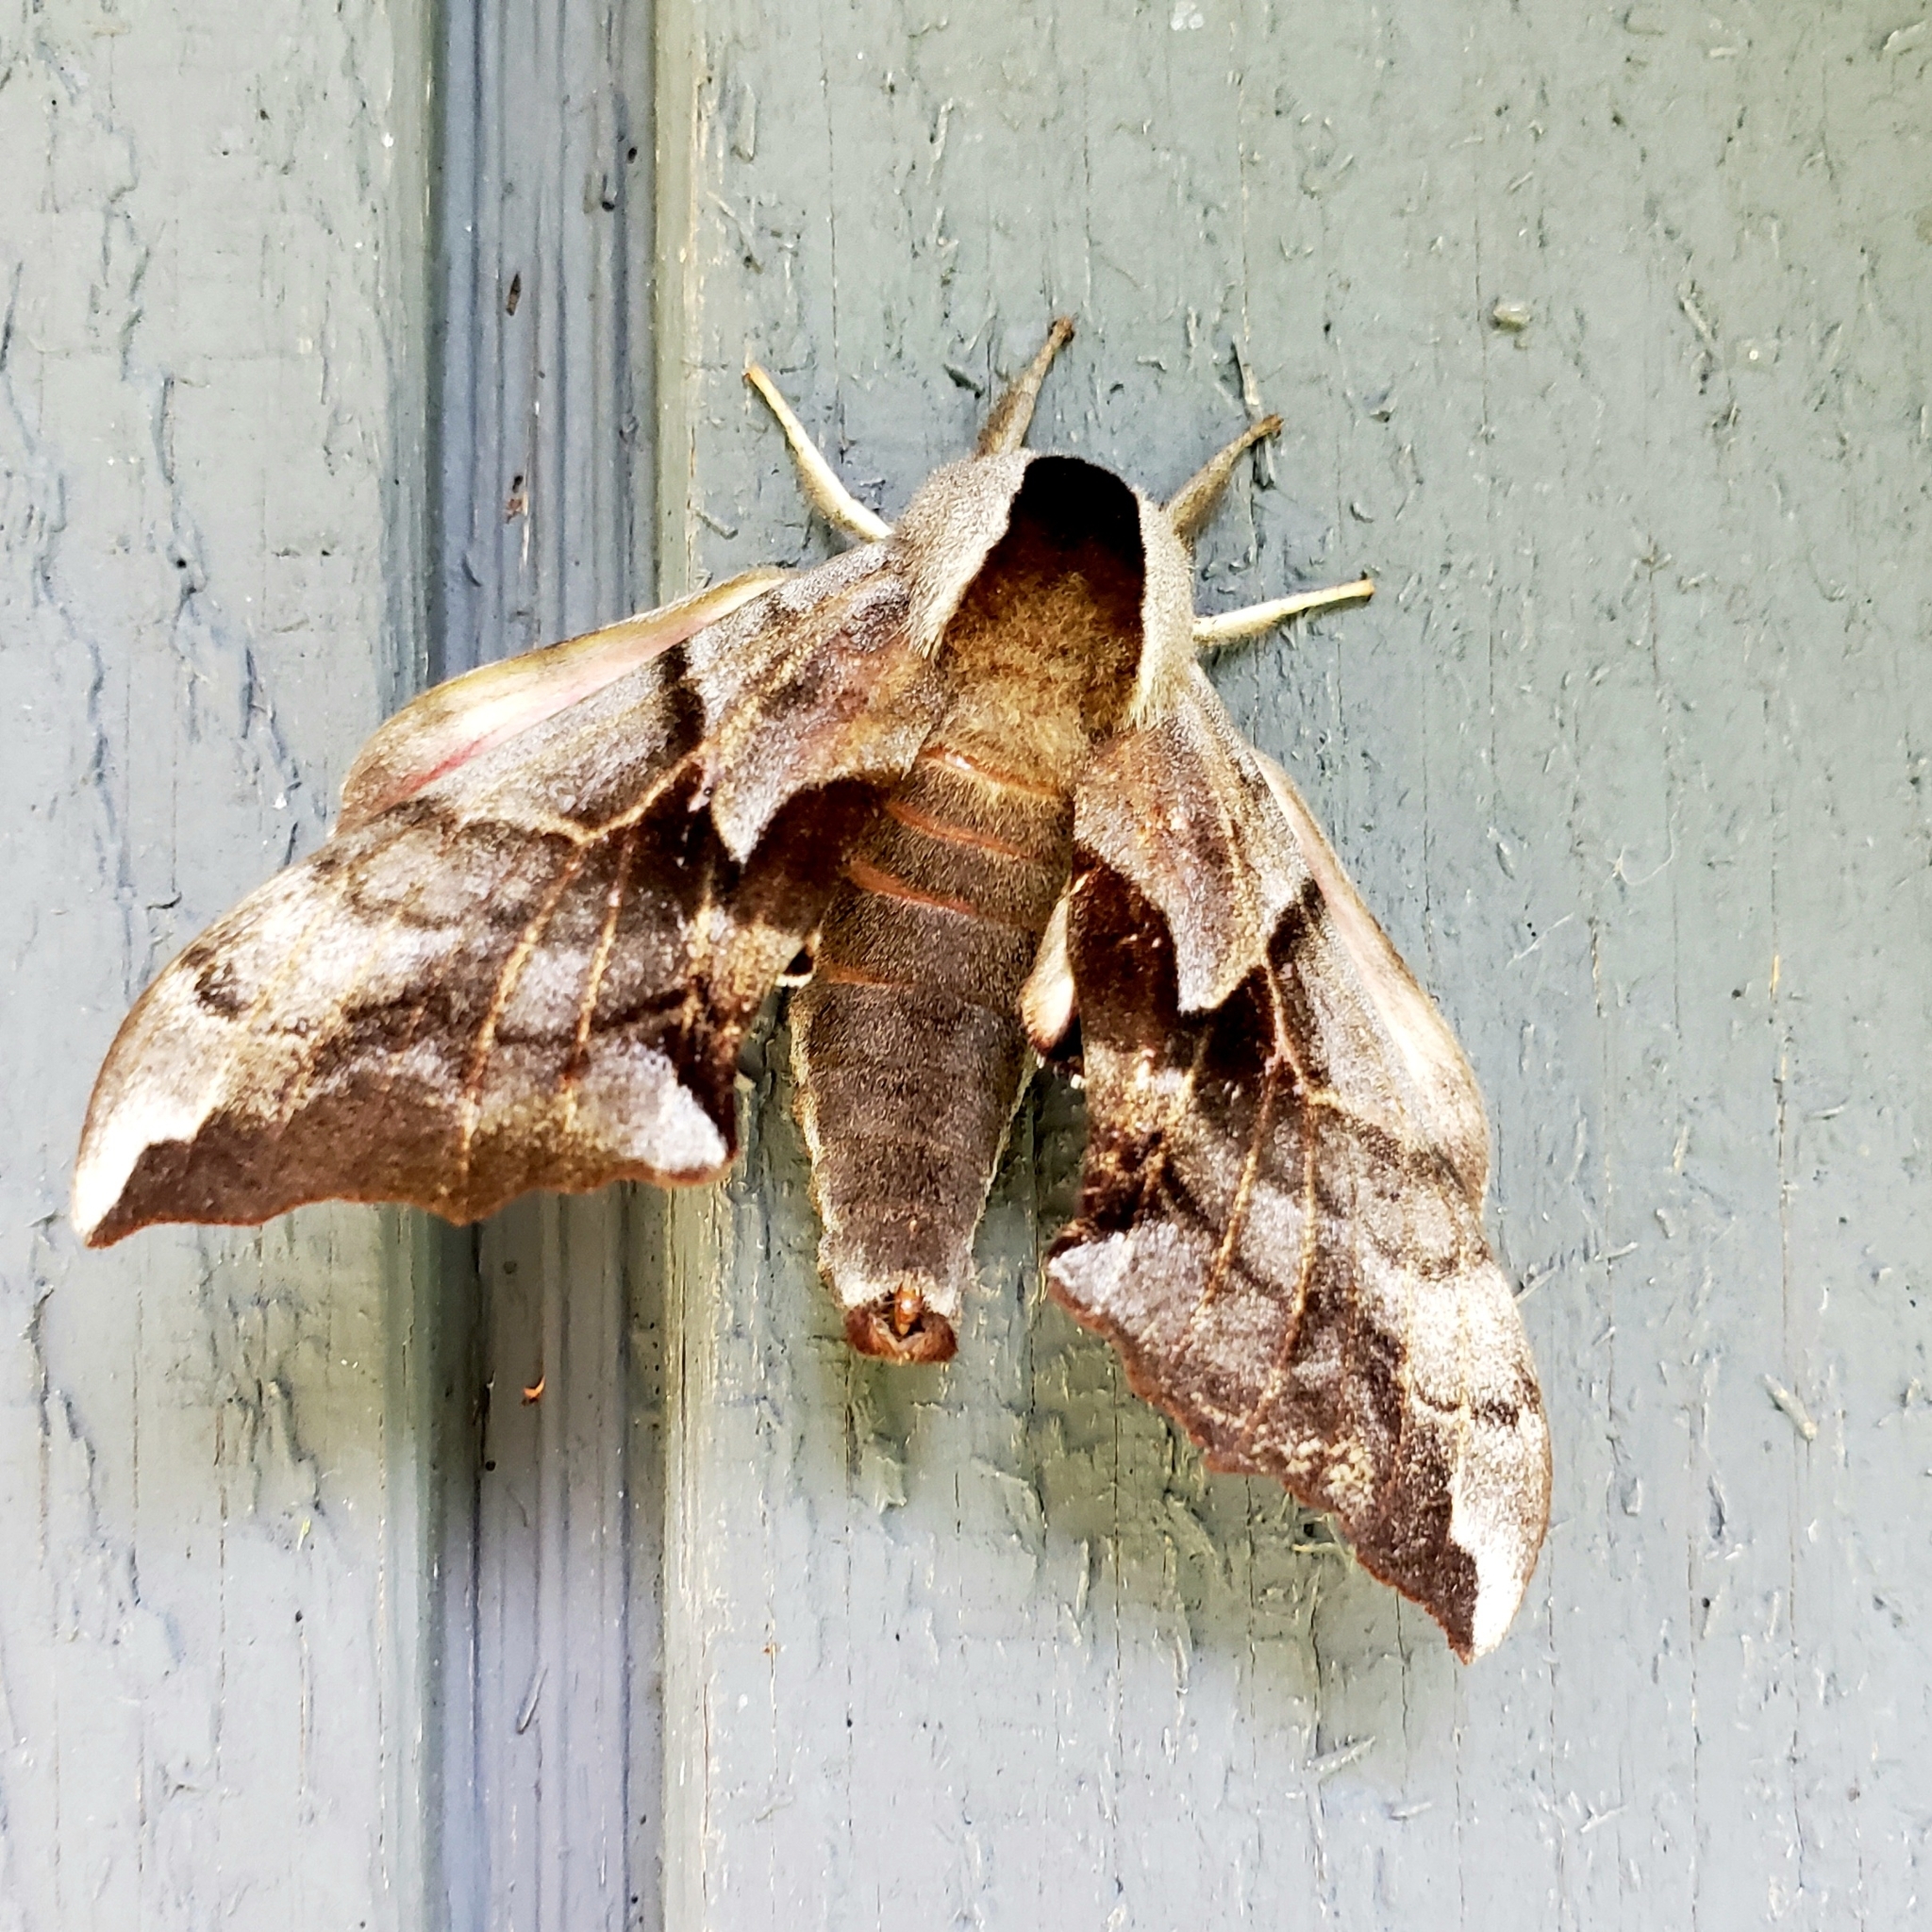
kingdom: Animalia
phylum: Arthropoda
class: Insecta
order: Lepidoptera
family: Sphingidae
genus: Smerinthus
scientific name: Smerinthus cerisyi
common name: Cerisy's sphinx moth
